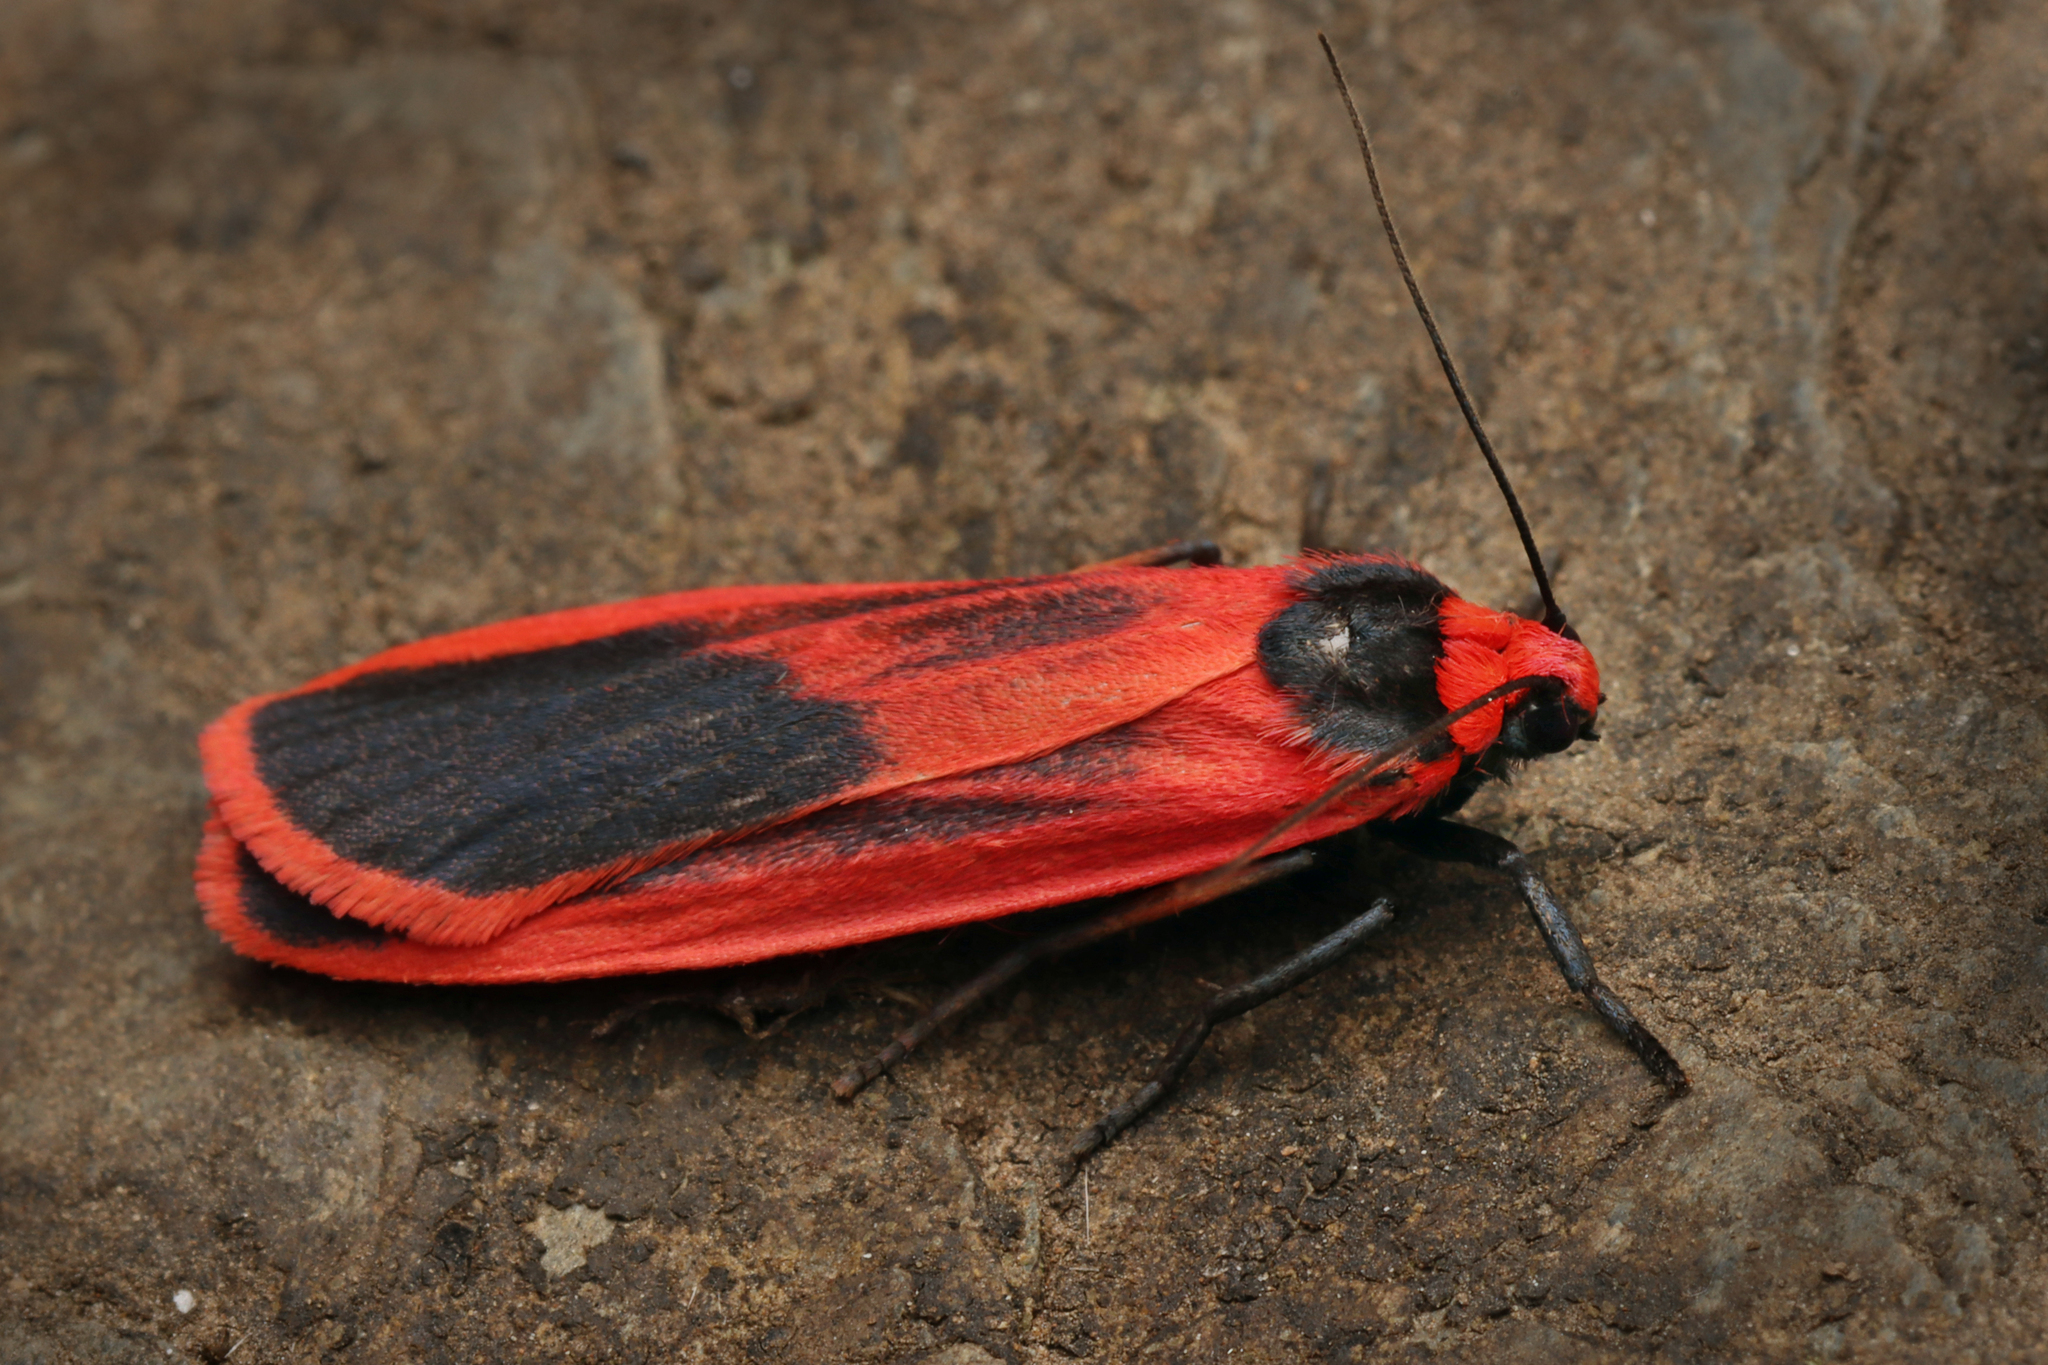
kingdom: Animalia
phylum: Arthropoda
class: Insecta
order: Lepidoptera
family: Erebidae
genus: Scoliacma
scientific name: Scoliacma bicolora
